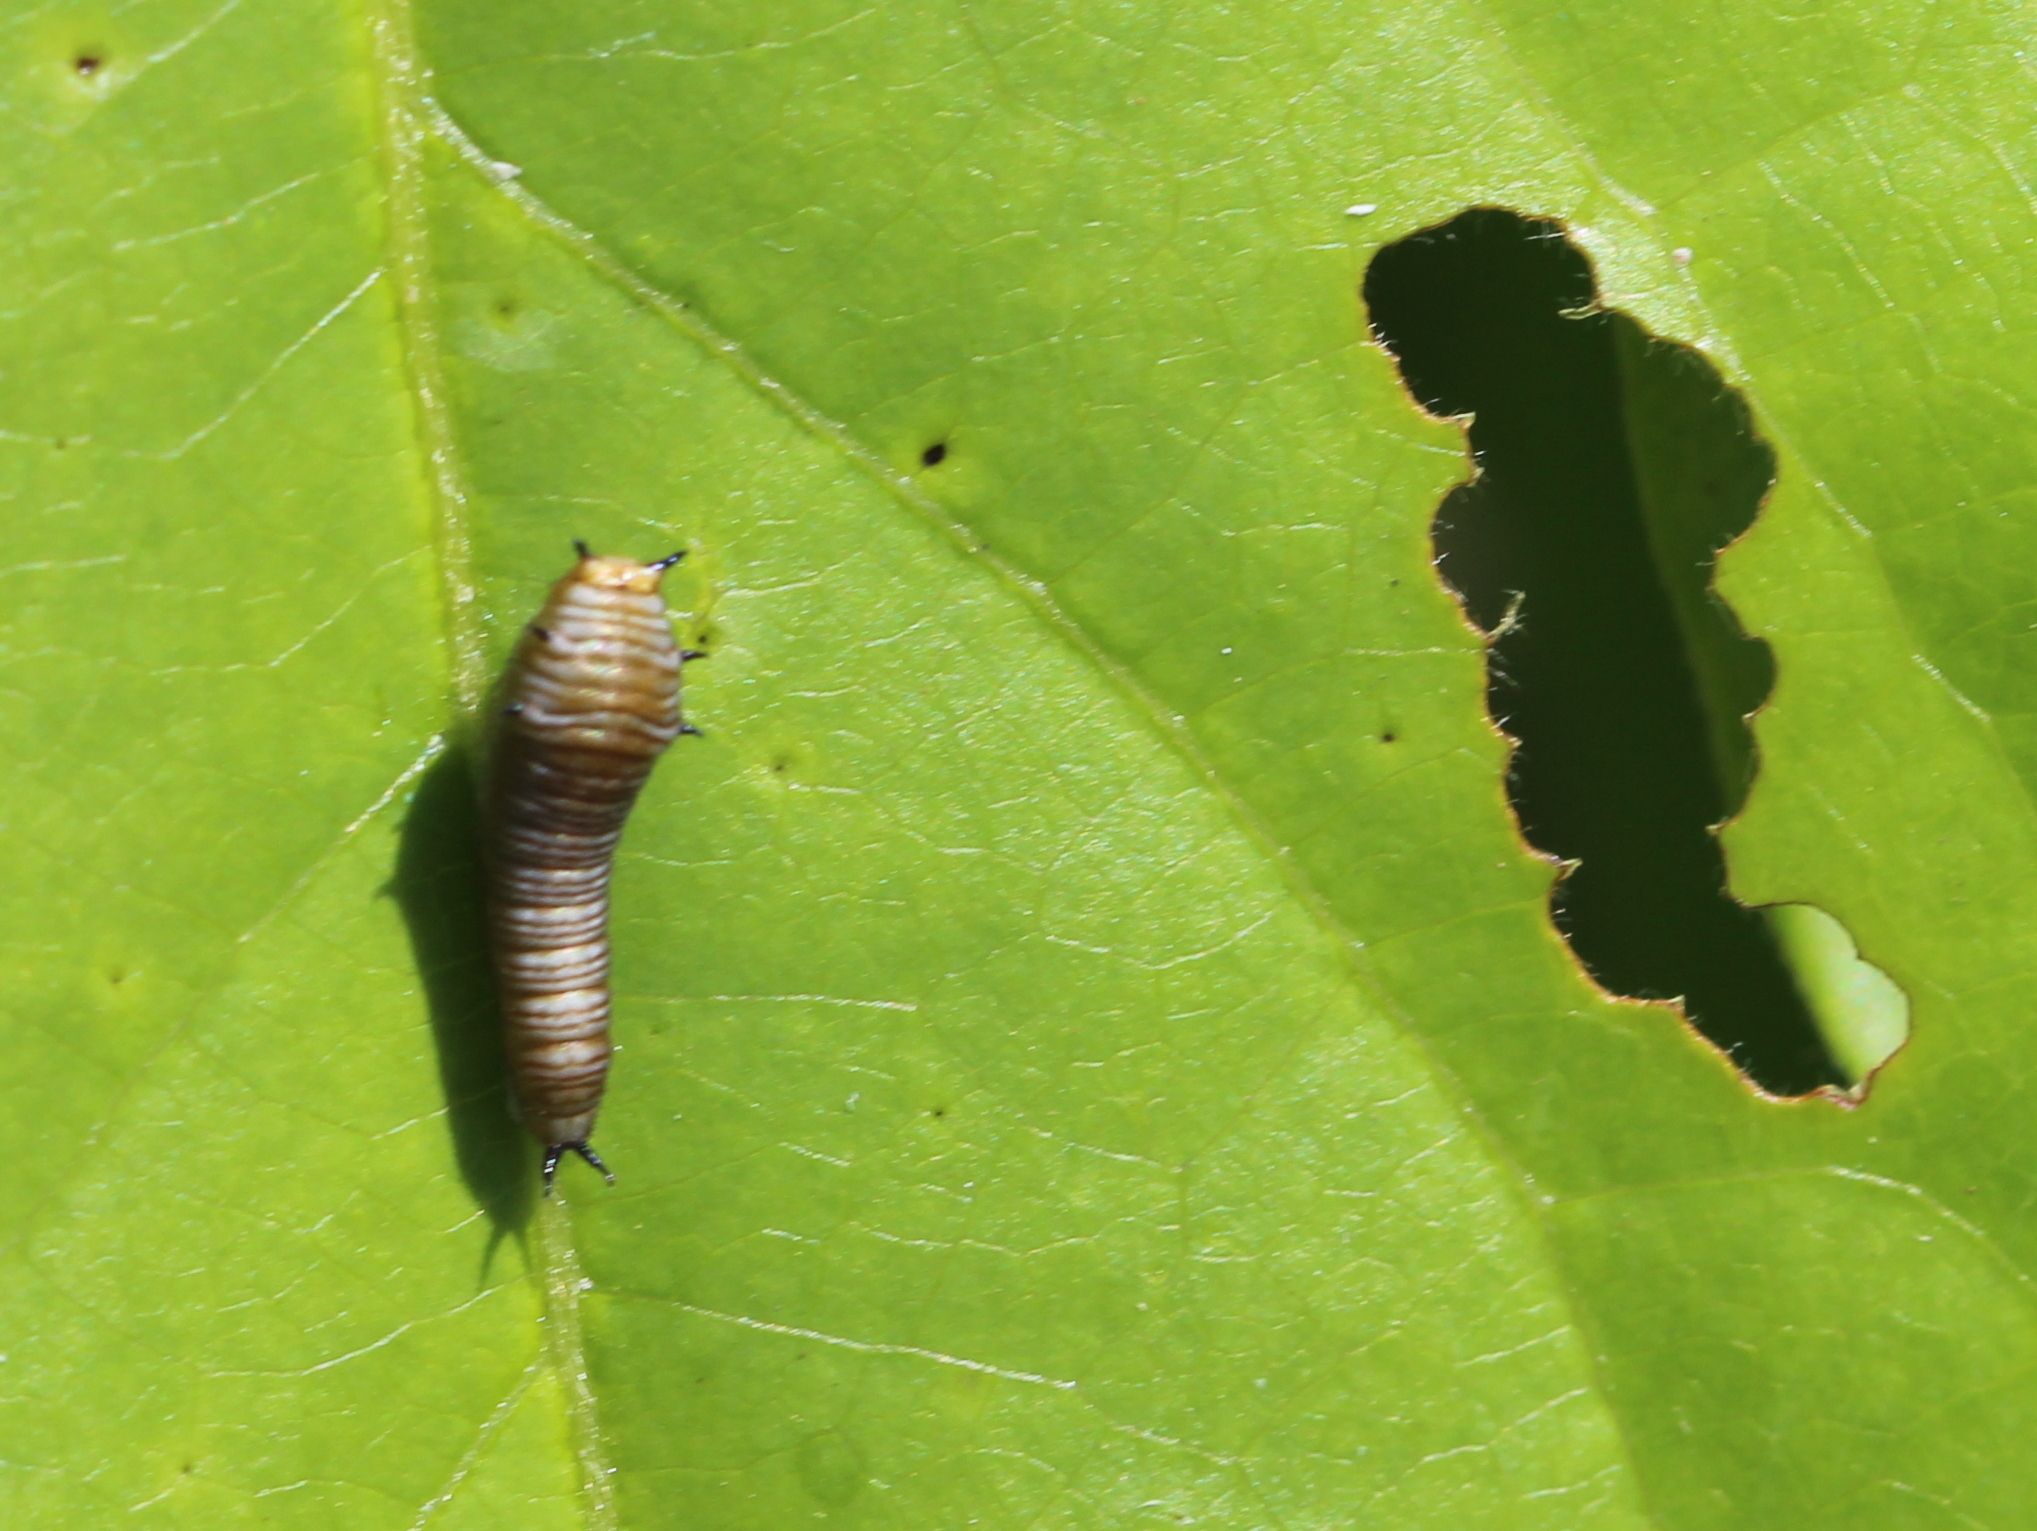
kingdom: Animalia
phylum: Arthropoda
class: Insecta
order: Lepidoptera
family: Papilionidae
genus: Graphium
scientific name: Graphium nomius
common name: Spot swordtail
